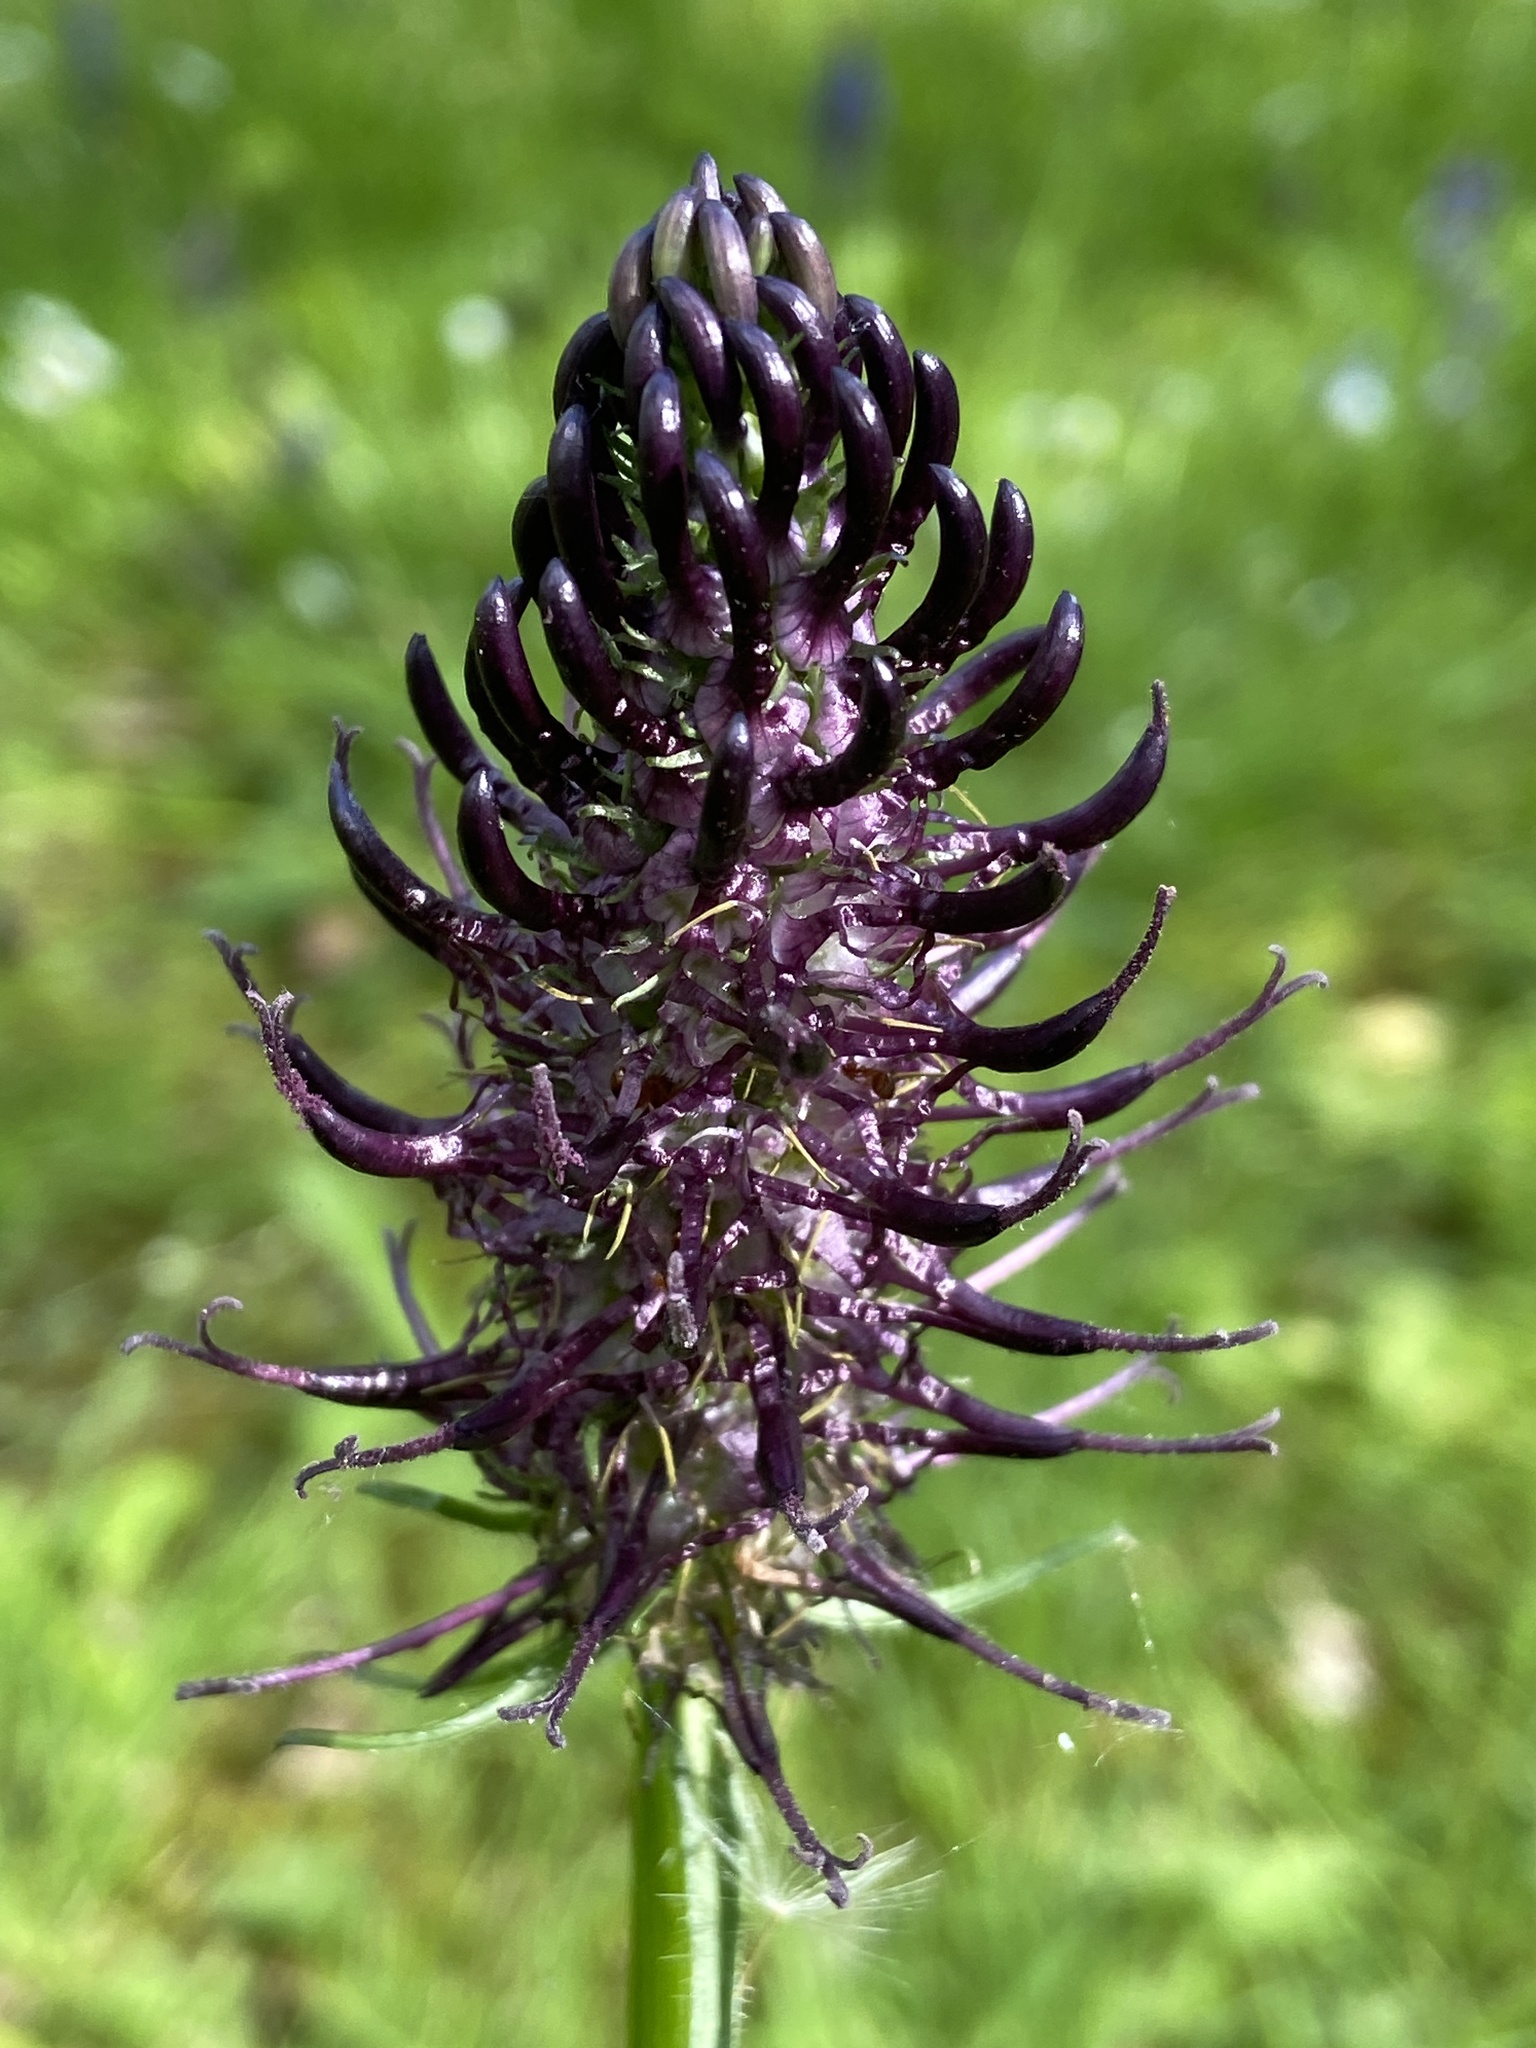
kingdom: Plantae
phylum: Tracheophyta
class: Magnoliopsida
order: Asterales
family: Campanulaceae
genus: Phyteuma
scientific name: Phyteuma nigrum
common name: Black rampion
